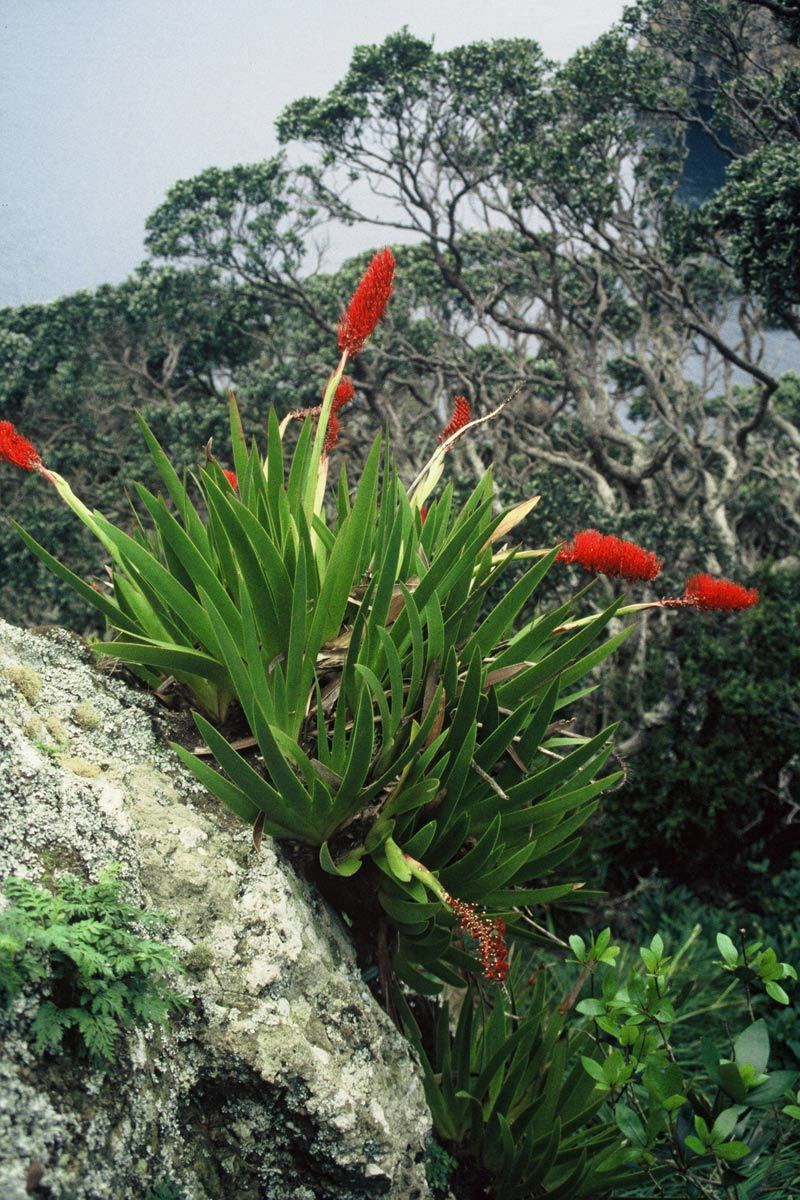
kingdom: Plantae
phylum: Tracheophyta
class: Liliopsida
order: Asparagales
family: Xeronemataceae
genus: Xeronema
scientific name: Xeronema callistemon
